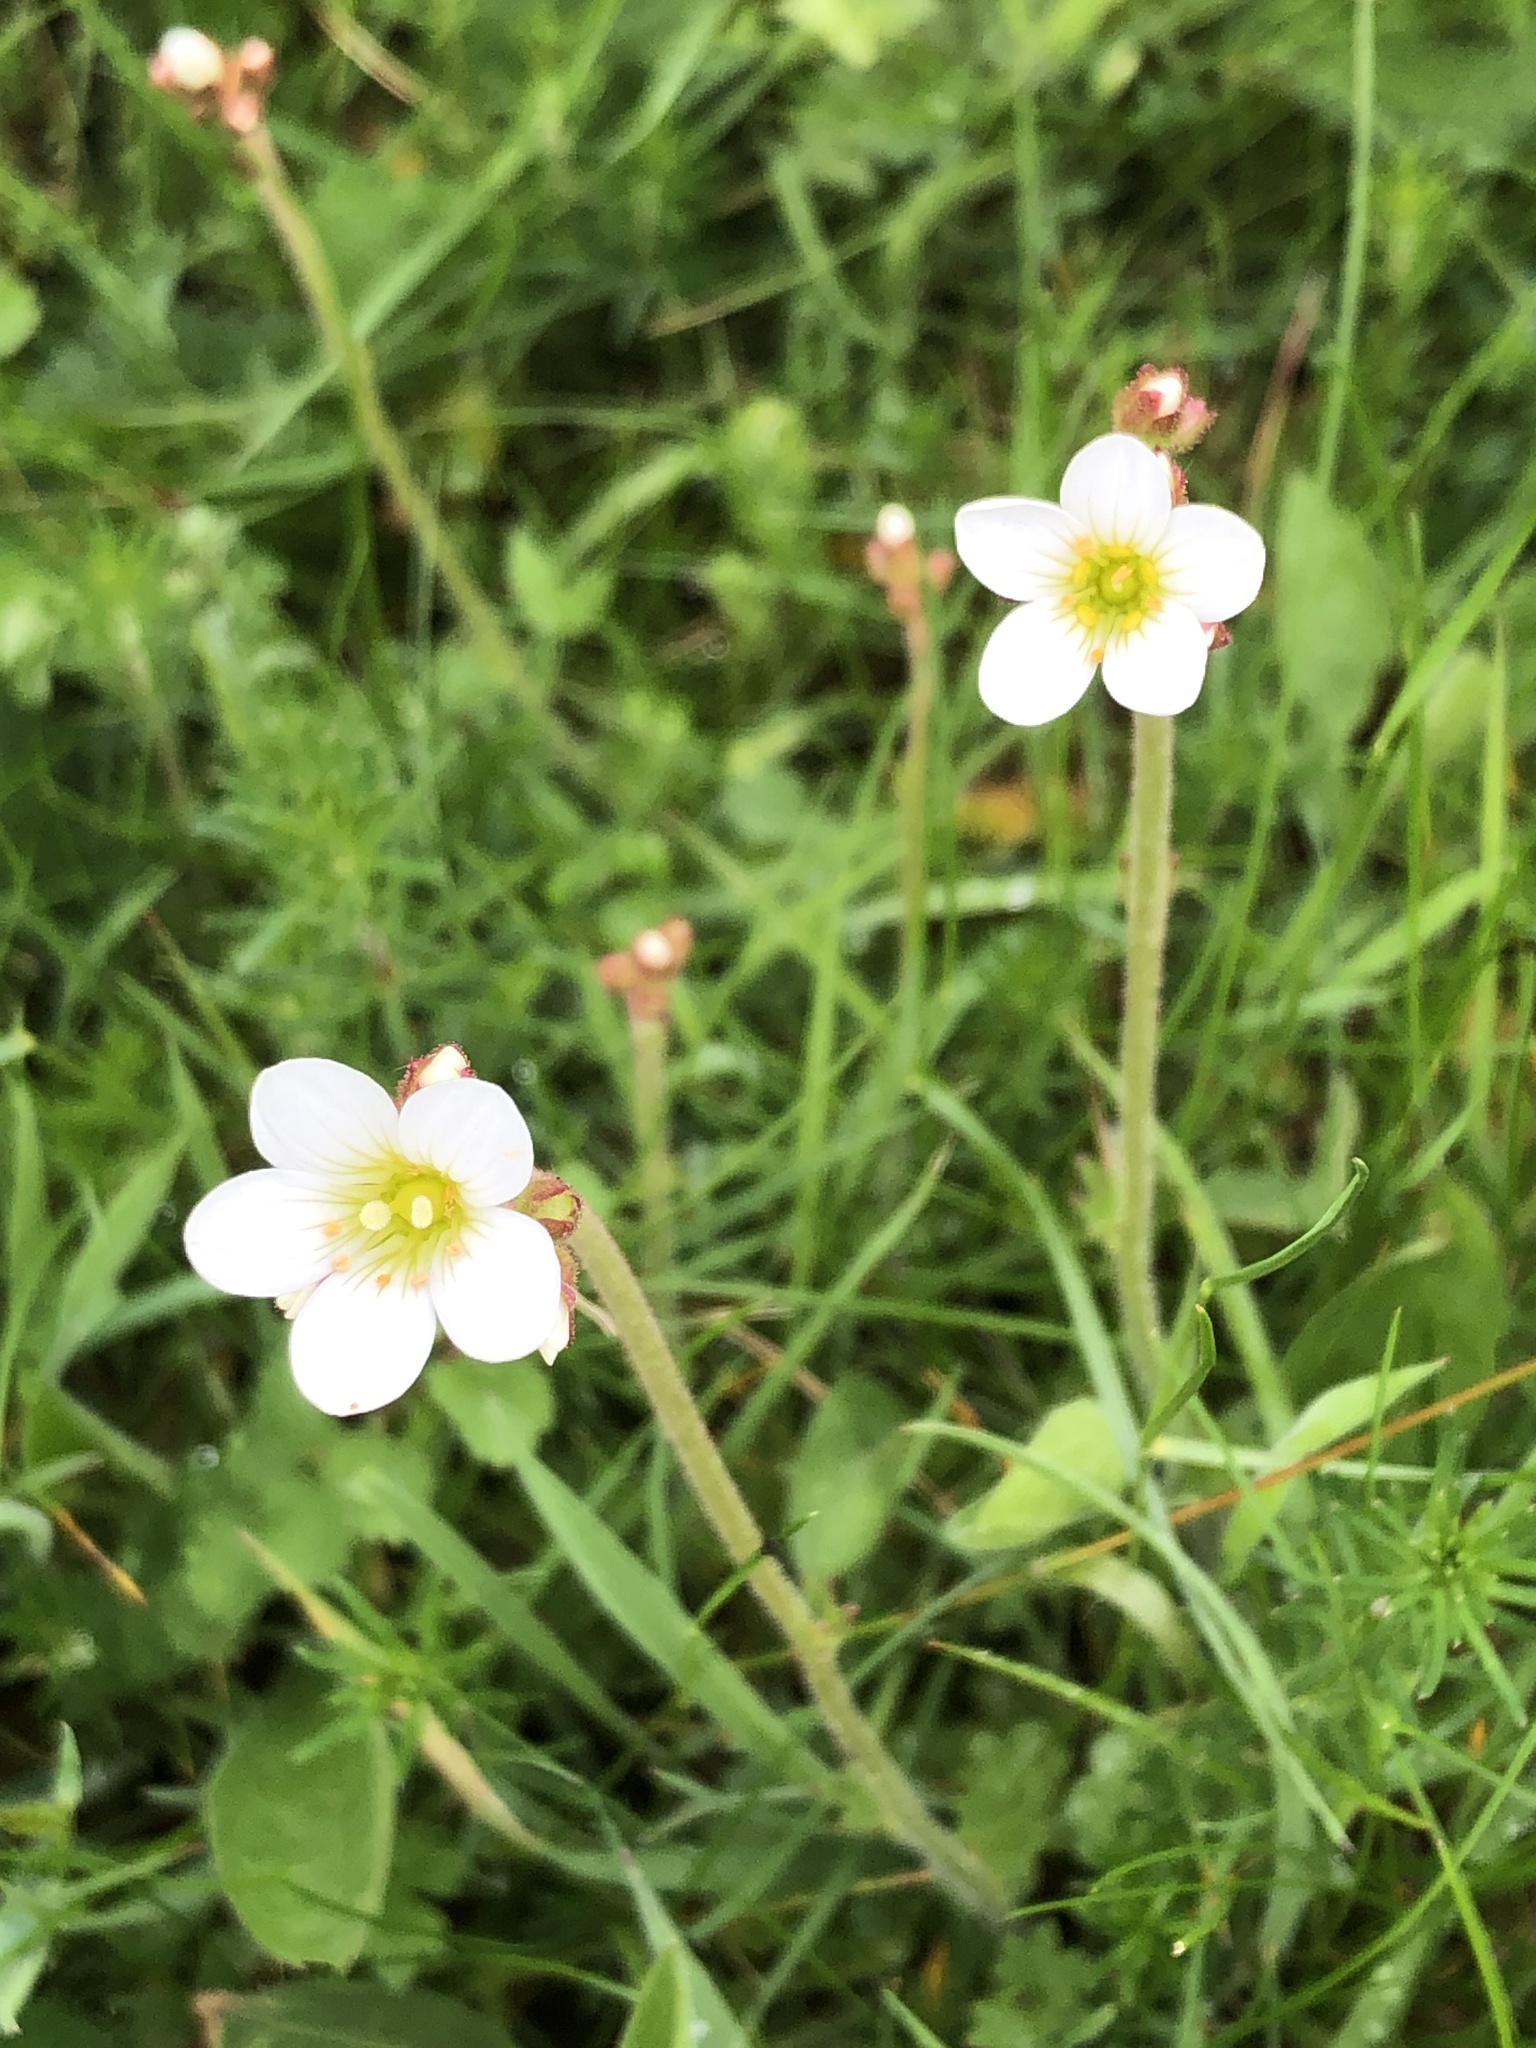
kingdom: Plantae
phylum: Tracheophyta
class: Magnoliopsida
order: Saxifragales
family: Saxifragaceae
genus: Saxifraga
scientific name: Saxifraga granulata
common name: Meadow saxifrage
